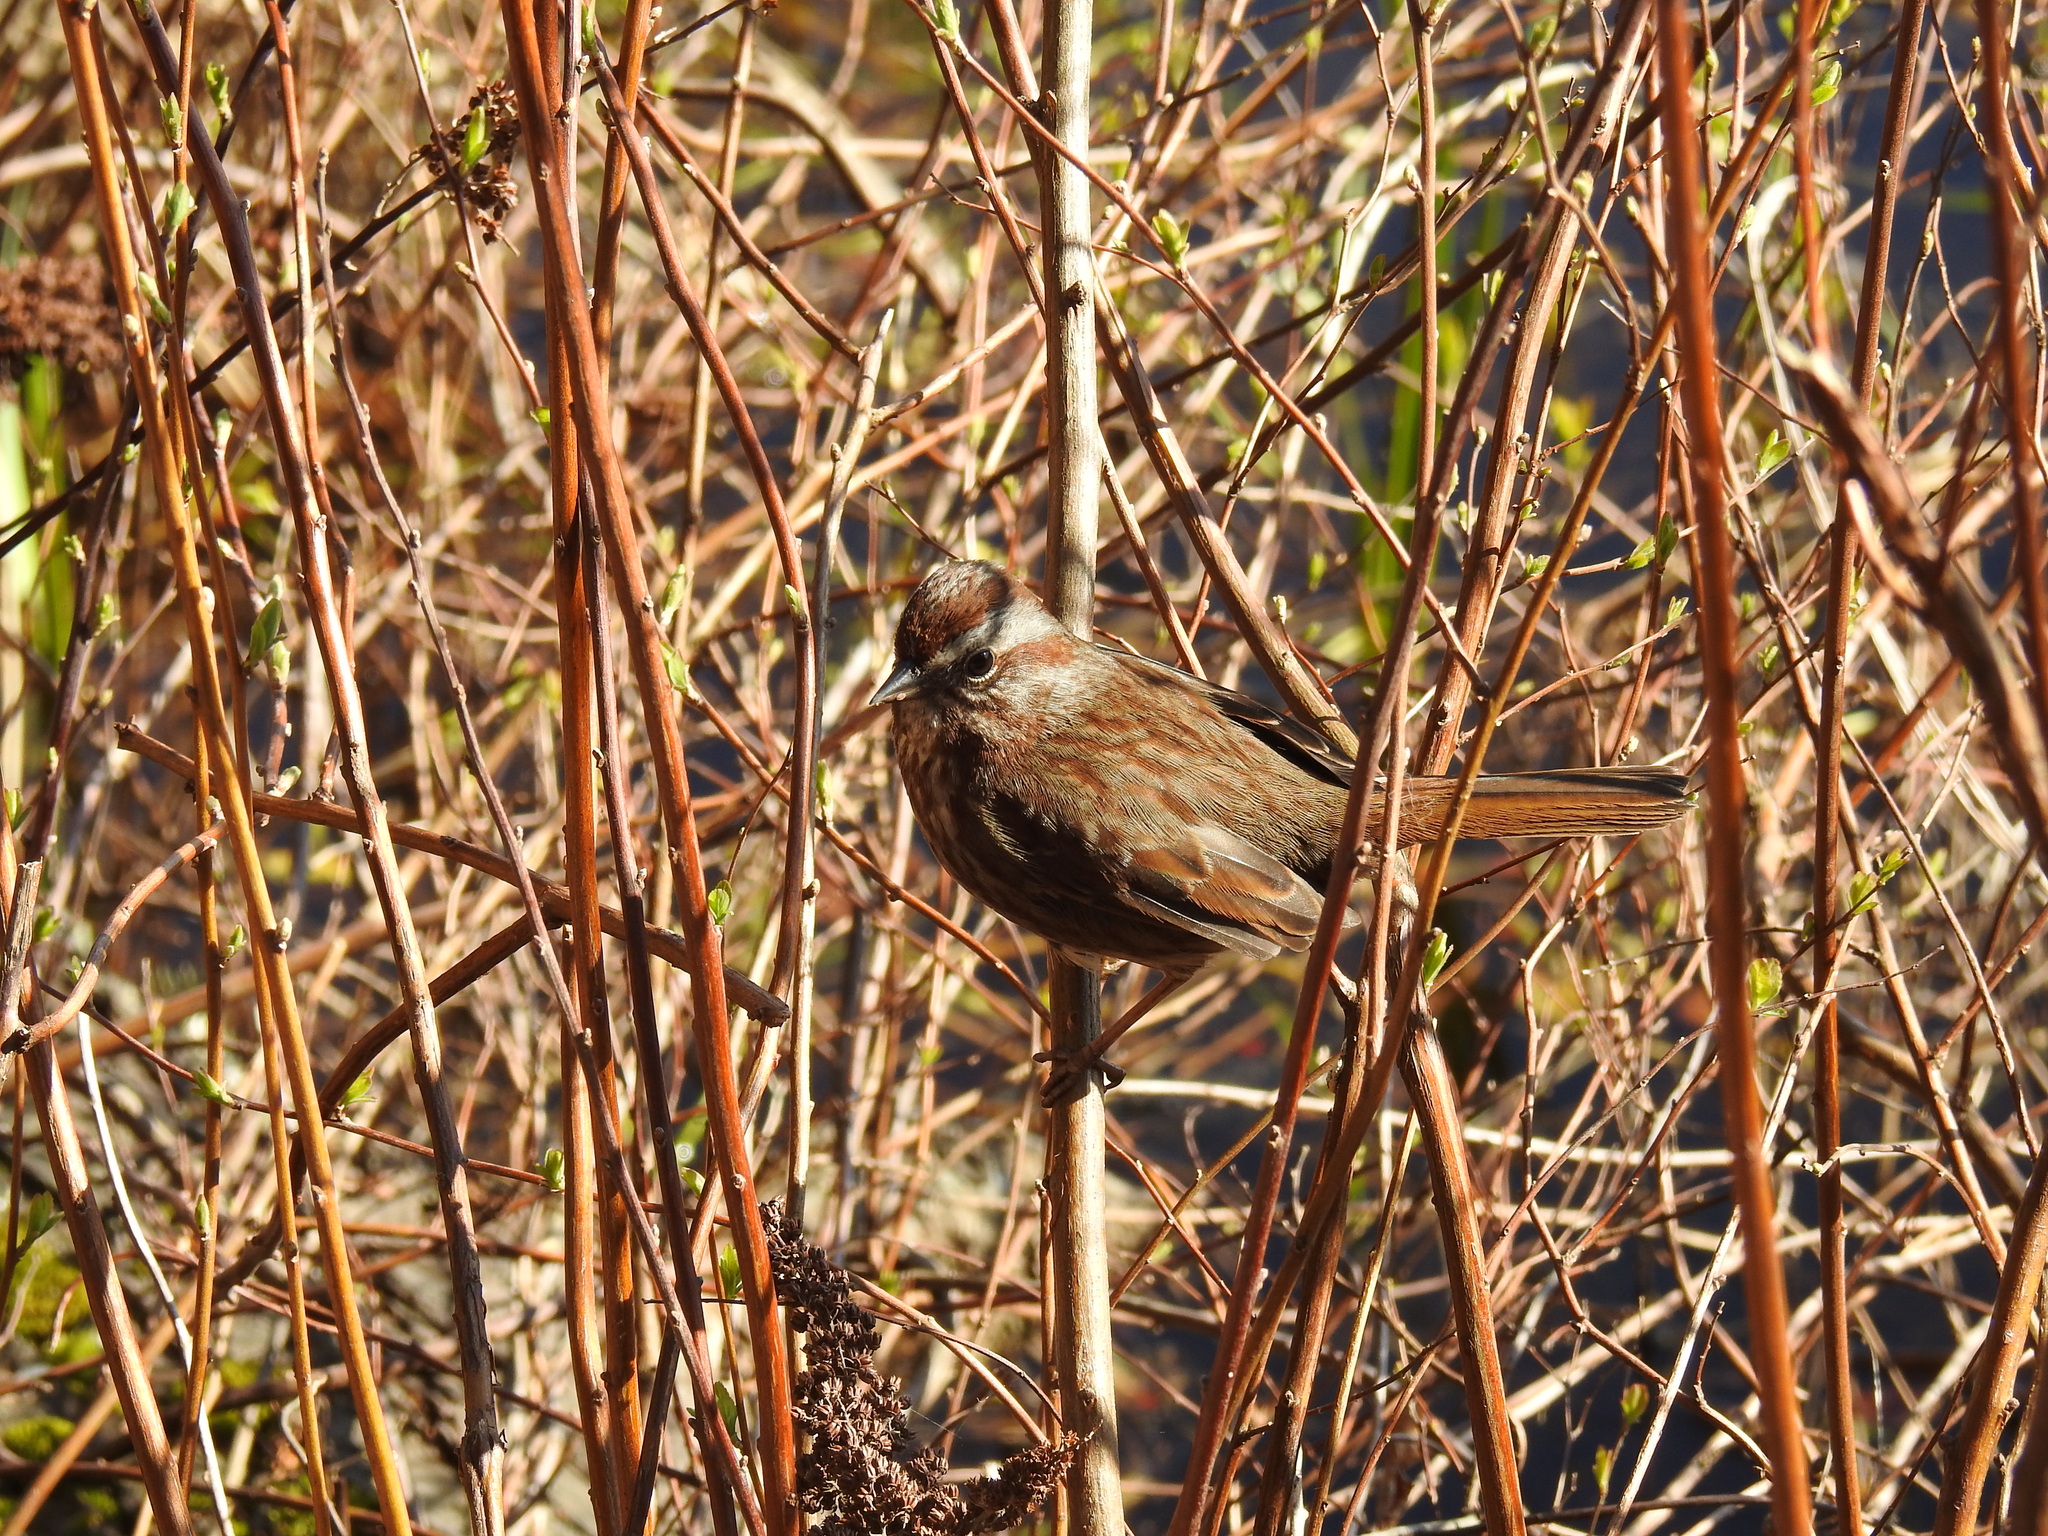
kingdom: Animalia
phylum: Chordata
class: Aves
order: Passeriformes
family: Passerellidae
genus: Melospiza
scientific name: Melospiza melodia
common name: Song sparrow
